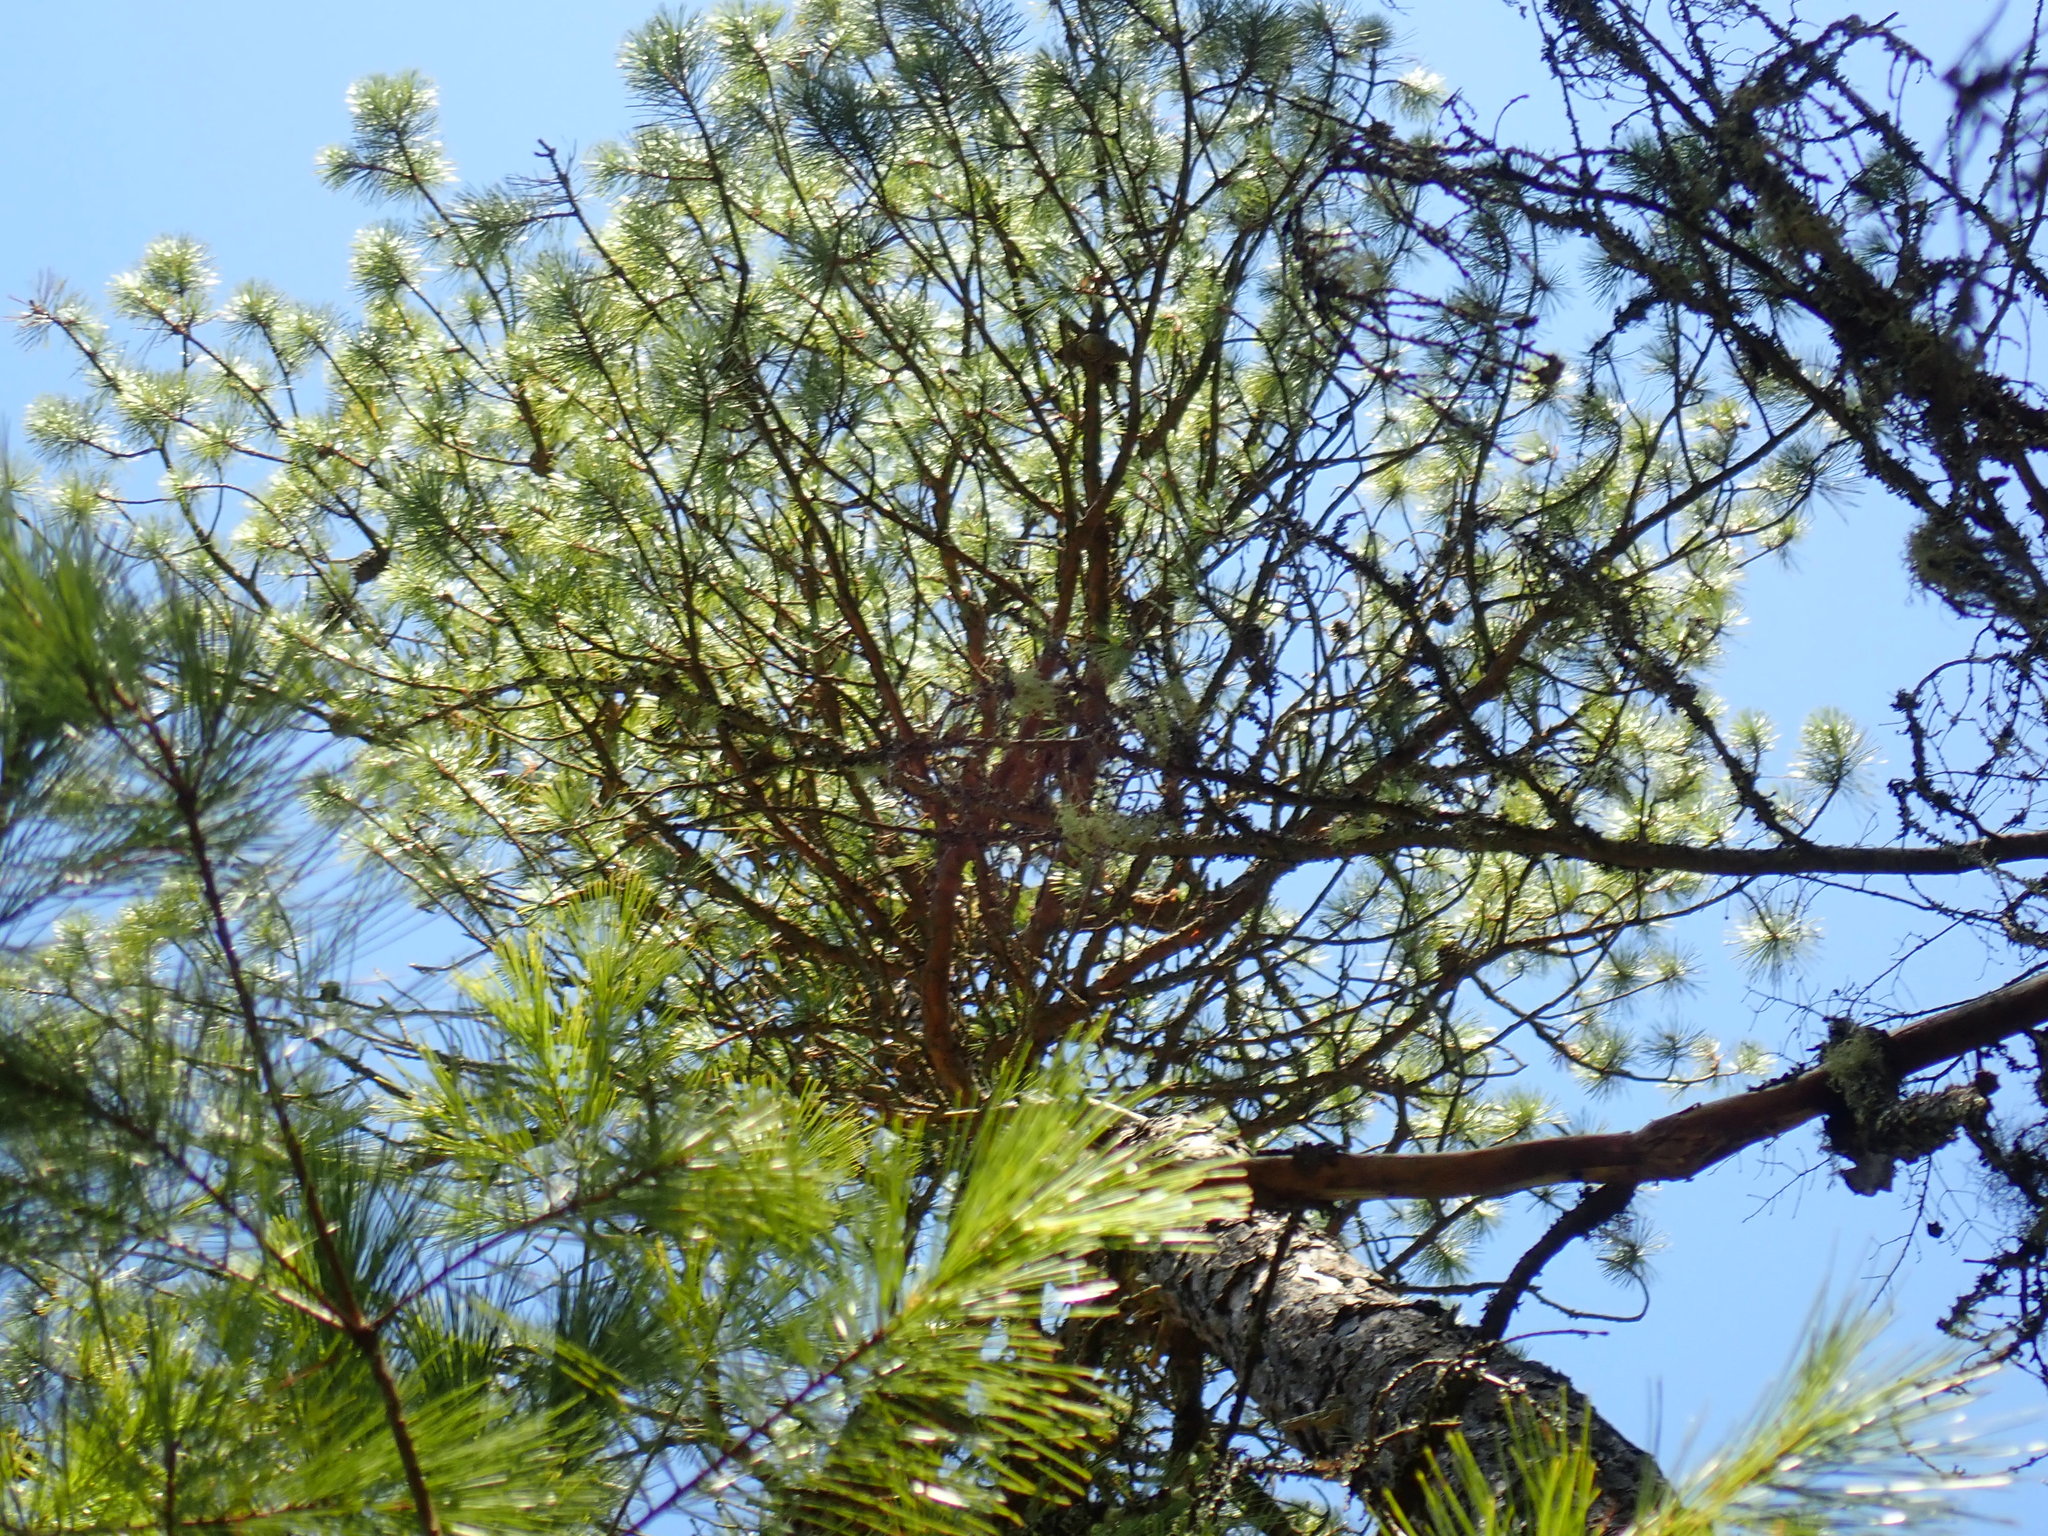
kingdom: Plantae
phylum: Tracheophyta
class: Pinopsida
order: Pinales
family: Pinaceae
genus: Pinus
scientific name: Pinus rigida
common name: Pitch pine
